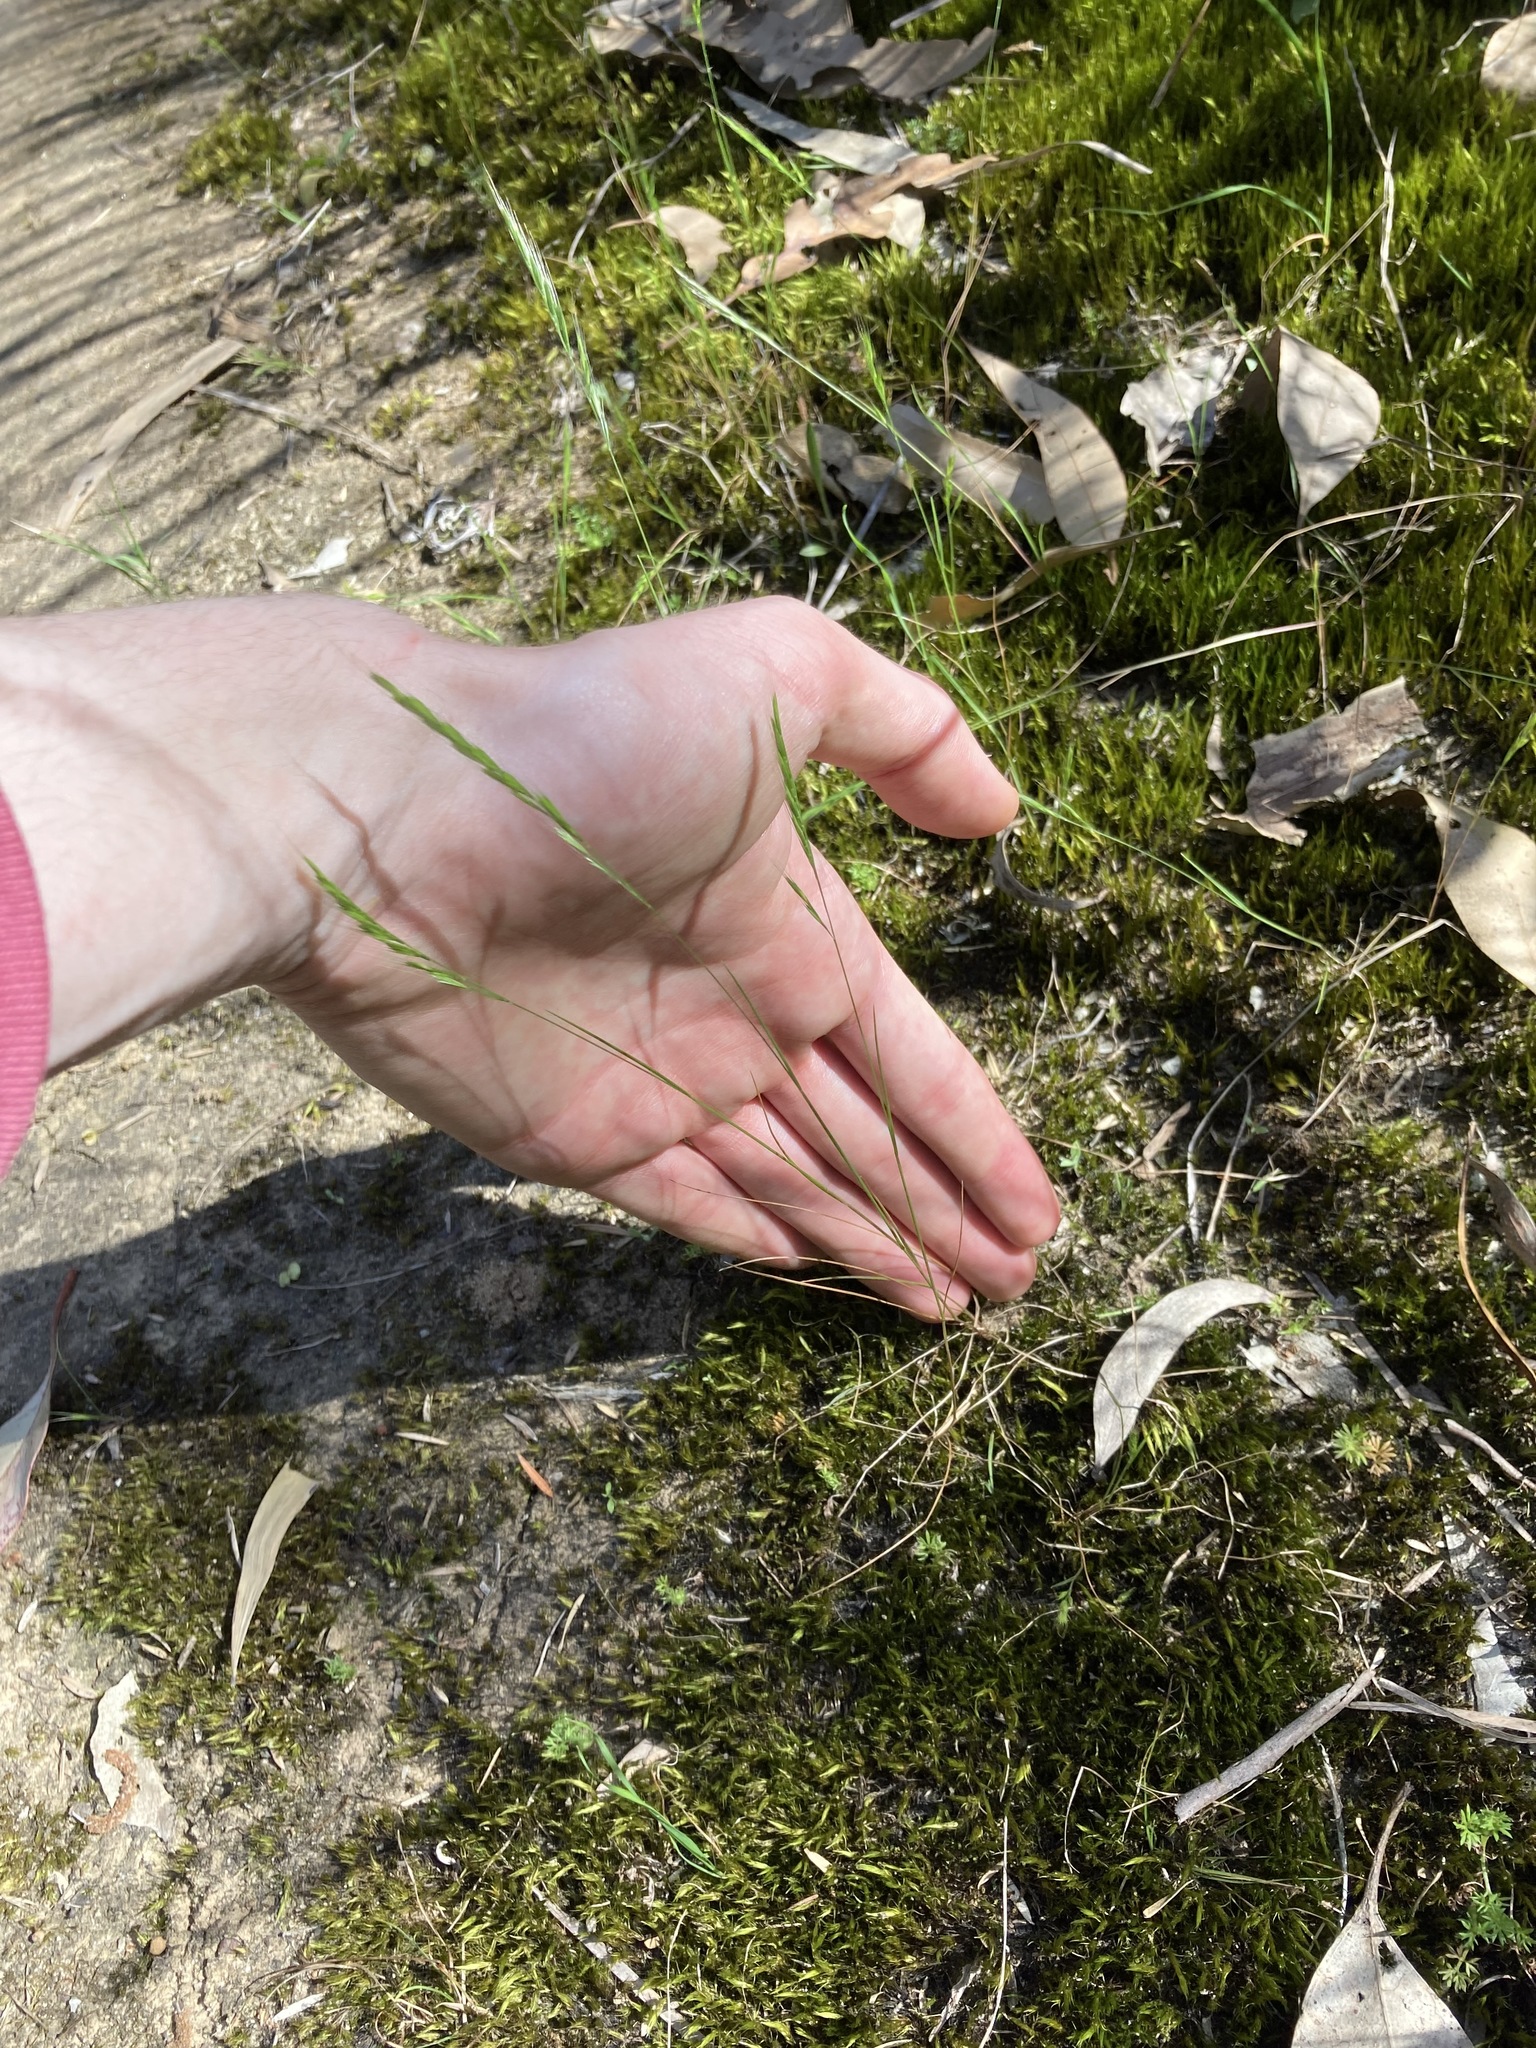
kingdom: Plantae
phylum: Tracheophyta
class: Liliopsida
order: Poales
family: Poaceae
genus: Festuca
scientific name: Festuca bromoides
